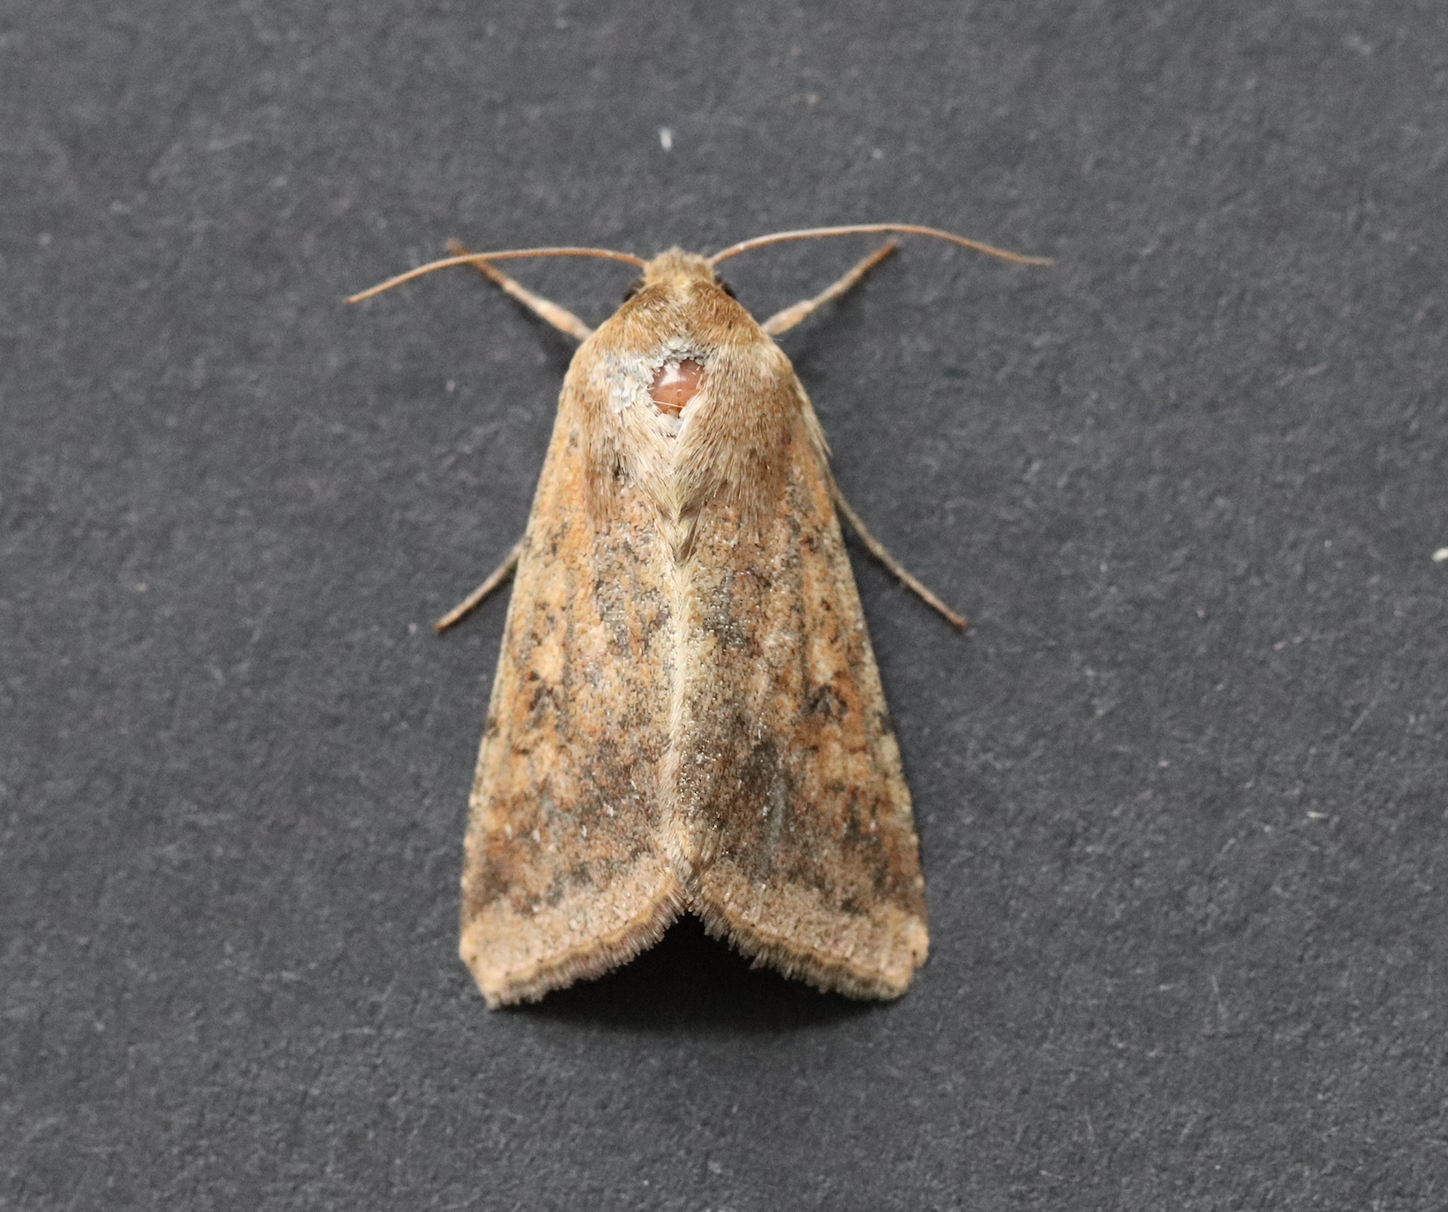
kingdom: Animalia
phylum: Arthropoda
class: Insecta
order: Lepidoptera
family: Noctuidae
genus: Helicoverpa
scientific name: Helicoverpa armigera
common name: Cotton bollworm
